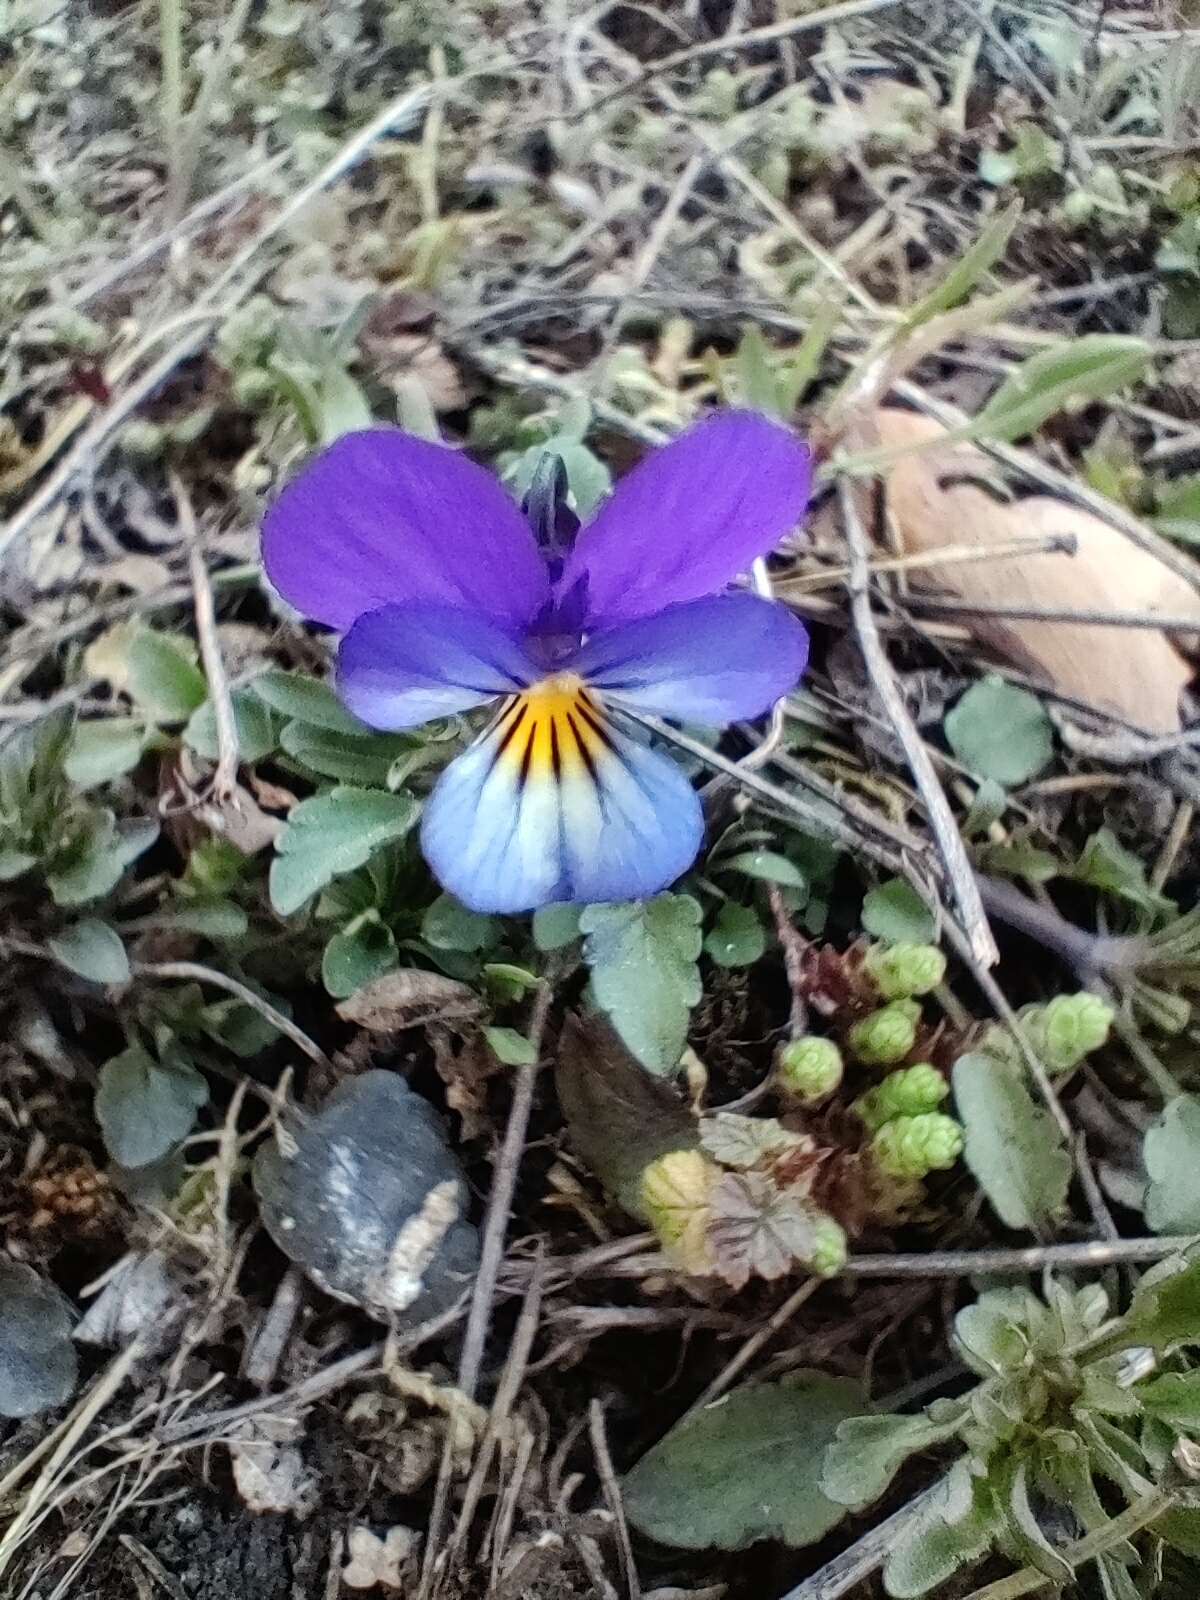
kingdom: Plantae
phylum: Tracheophyta
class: Magnoliopsida
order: Malpighiales
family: Violaceae
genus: Viola
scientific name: Viola tricolor
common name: Pansy
